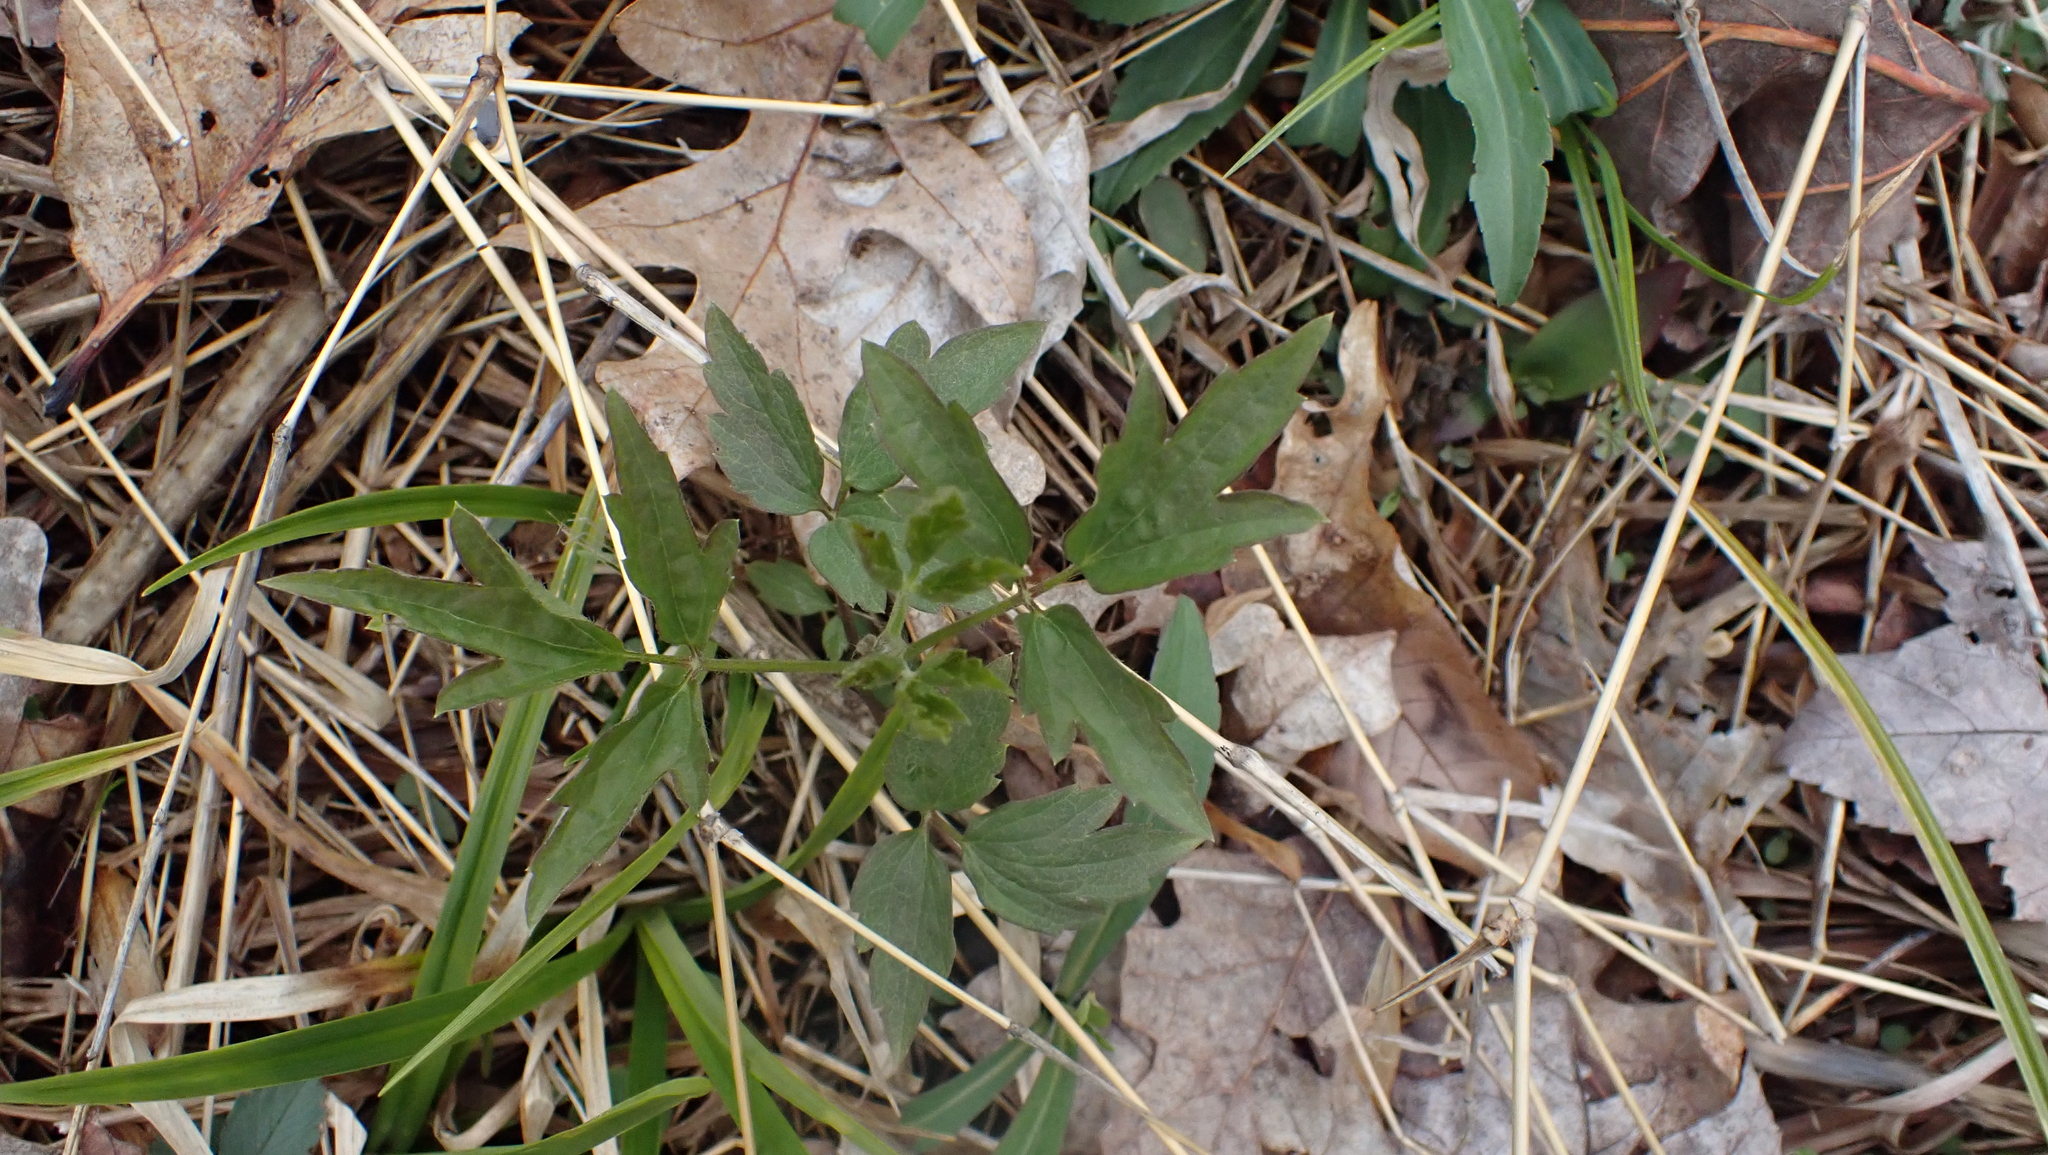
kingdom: Plantae
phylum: Tracheophyta
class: Magnoliopsida
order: Ranunculales
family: Ranunculaceae
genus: Clematis
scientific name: Clematis virginiana
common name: Virgin's-bower
